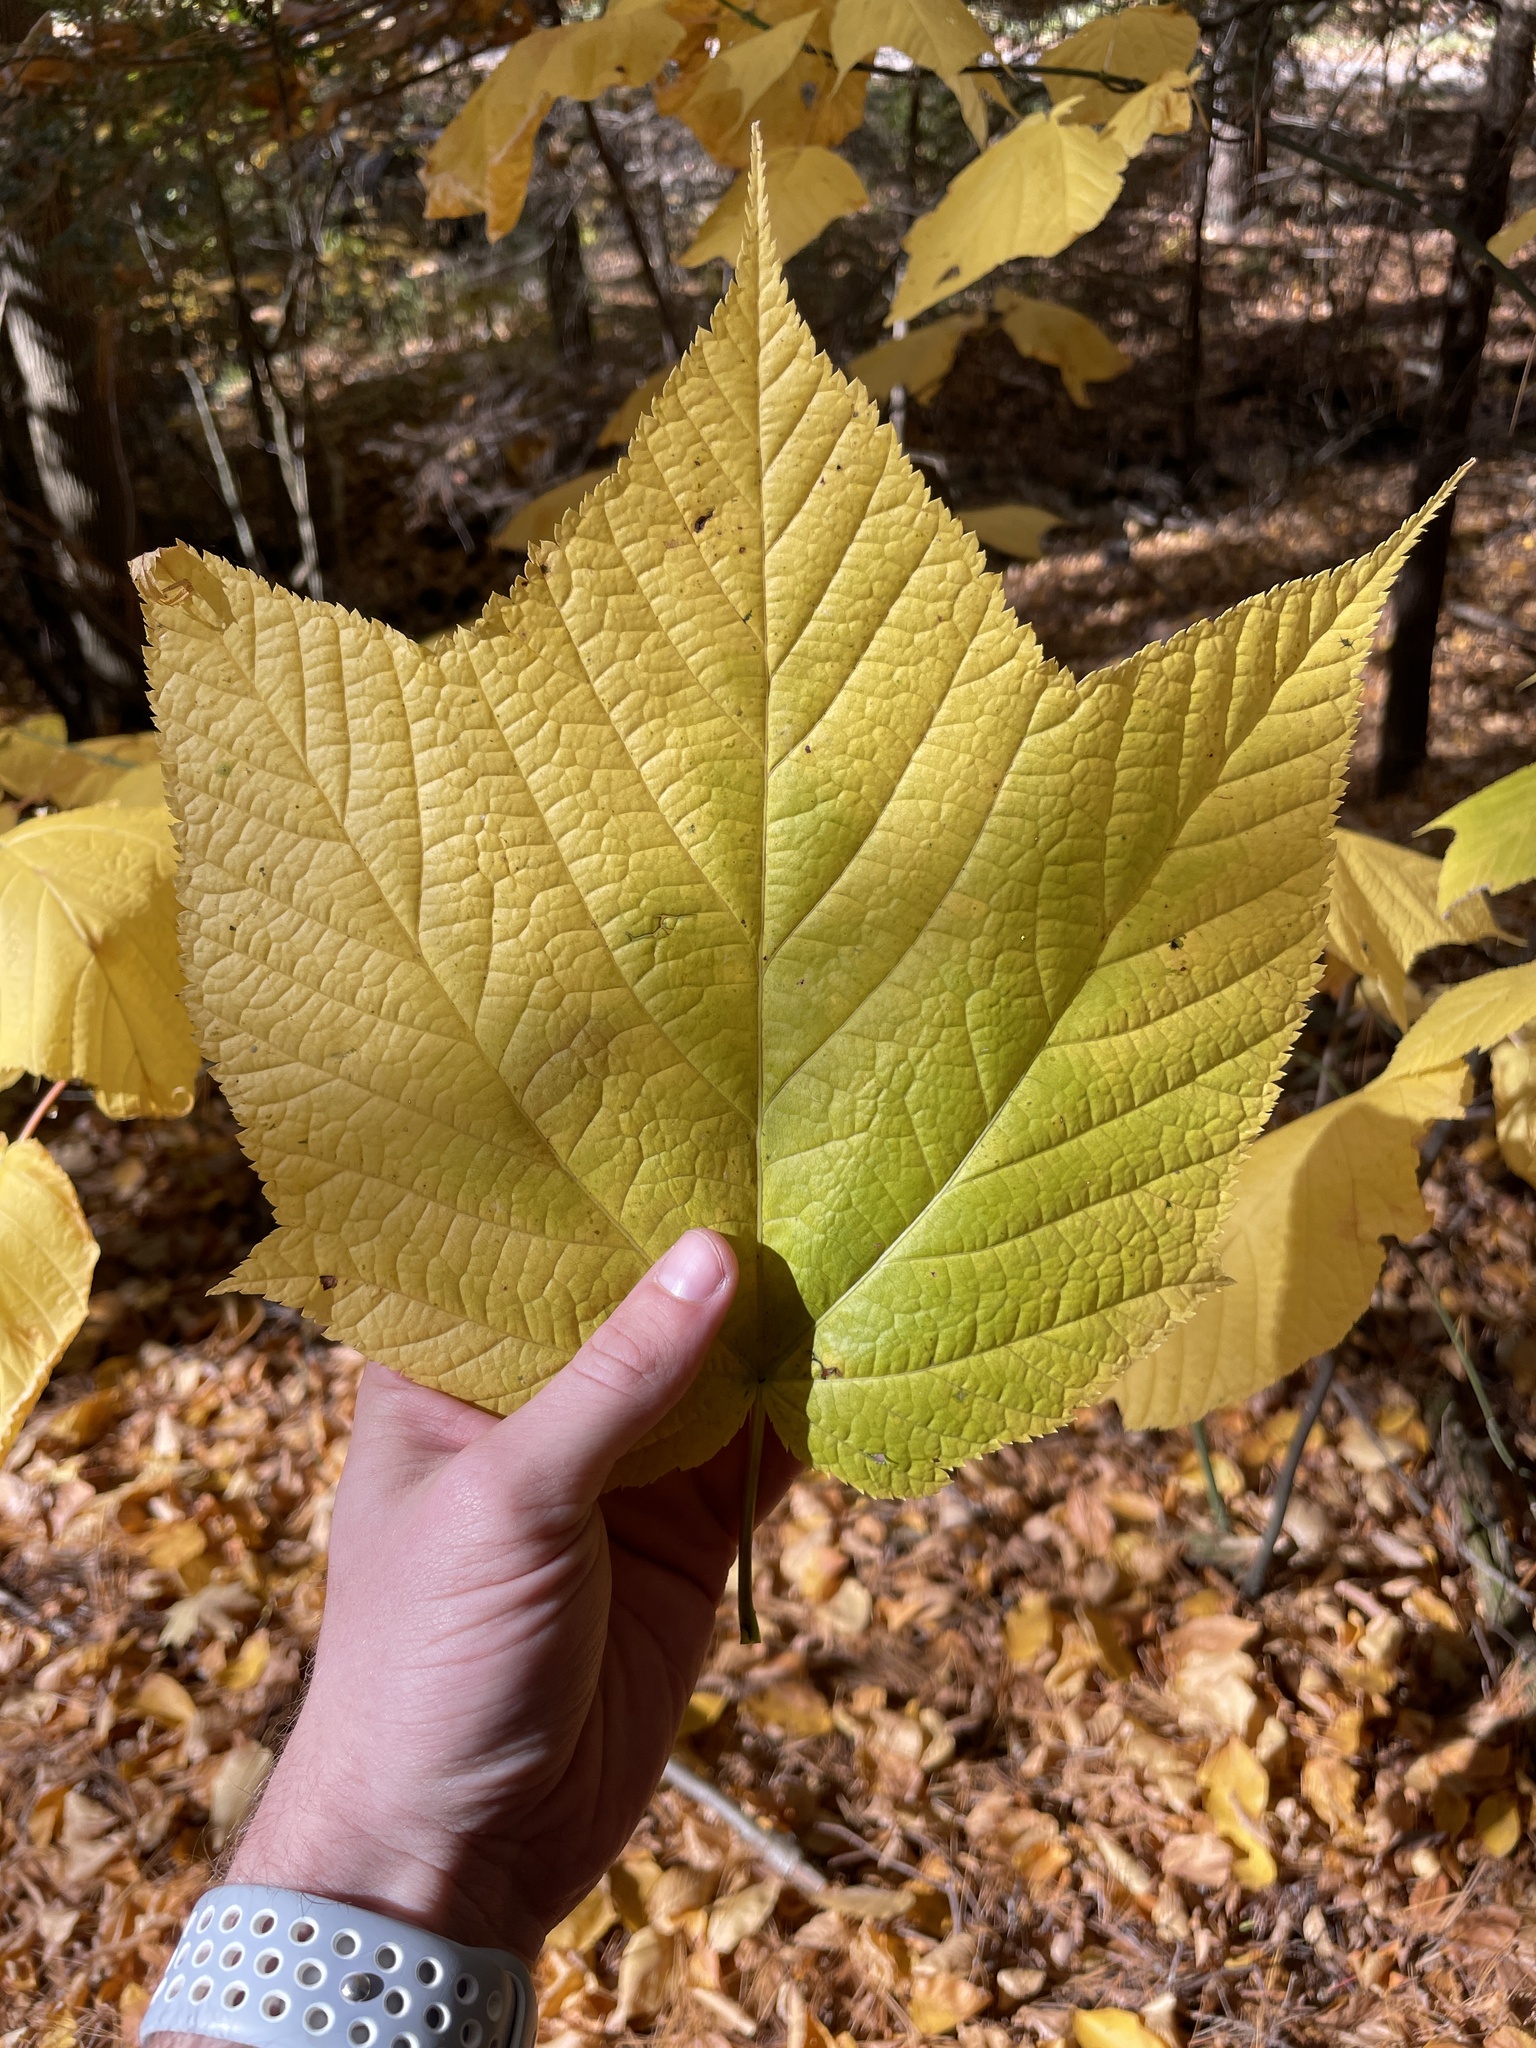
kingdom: Plantae
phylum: Tracheophyta
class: Magnoliopsida
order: Sapindales
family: Sapindaceae
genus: Acer
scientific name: Acer pensylvanicum
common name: Moosewood
